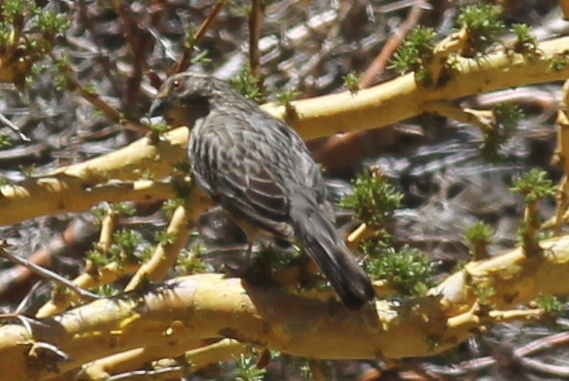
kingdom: Animalia
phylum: Chordata
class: Aves
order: Passeriformes
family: Cotingidae
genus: Phytotoma
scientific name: Phytotoma rara
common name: Rufous-tailed plantcutter
